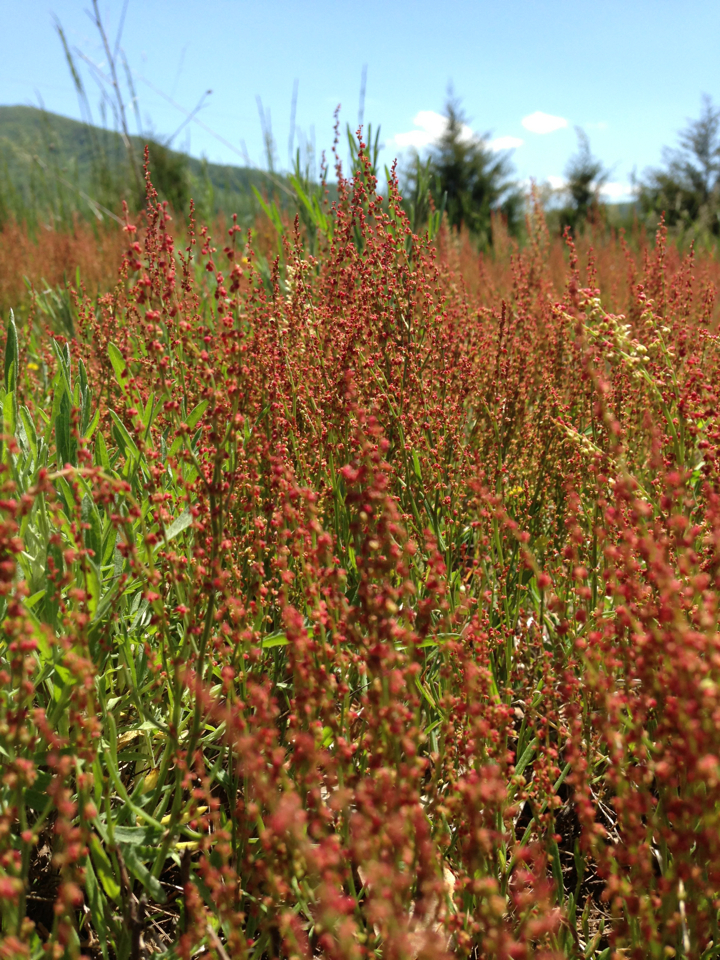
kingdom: Plantae
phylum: Tracheophyta
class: Magnoliopsida
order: Caryophyllales
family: Polygonaceae
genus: Rumex
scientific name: Rumex acetosella
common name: Common sheep sorrel
